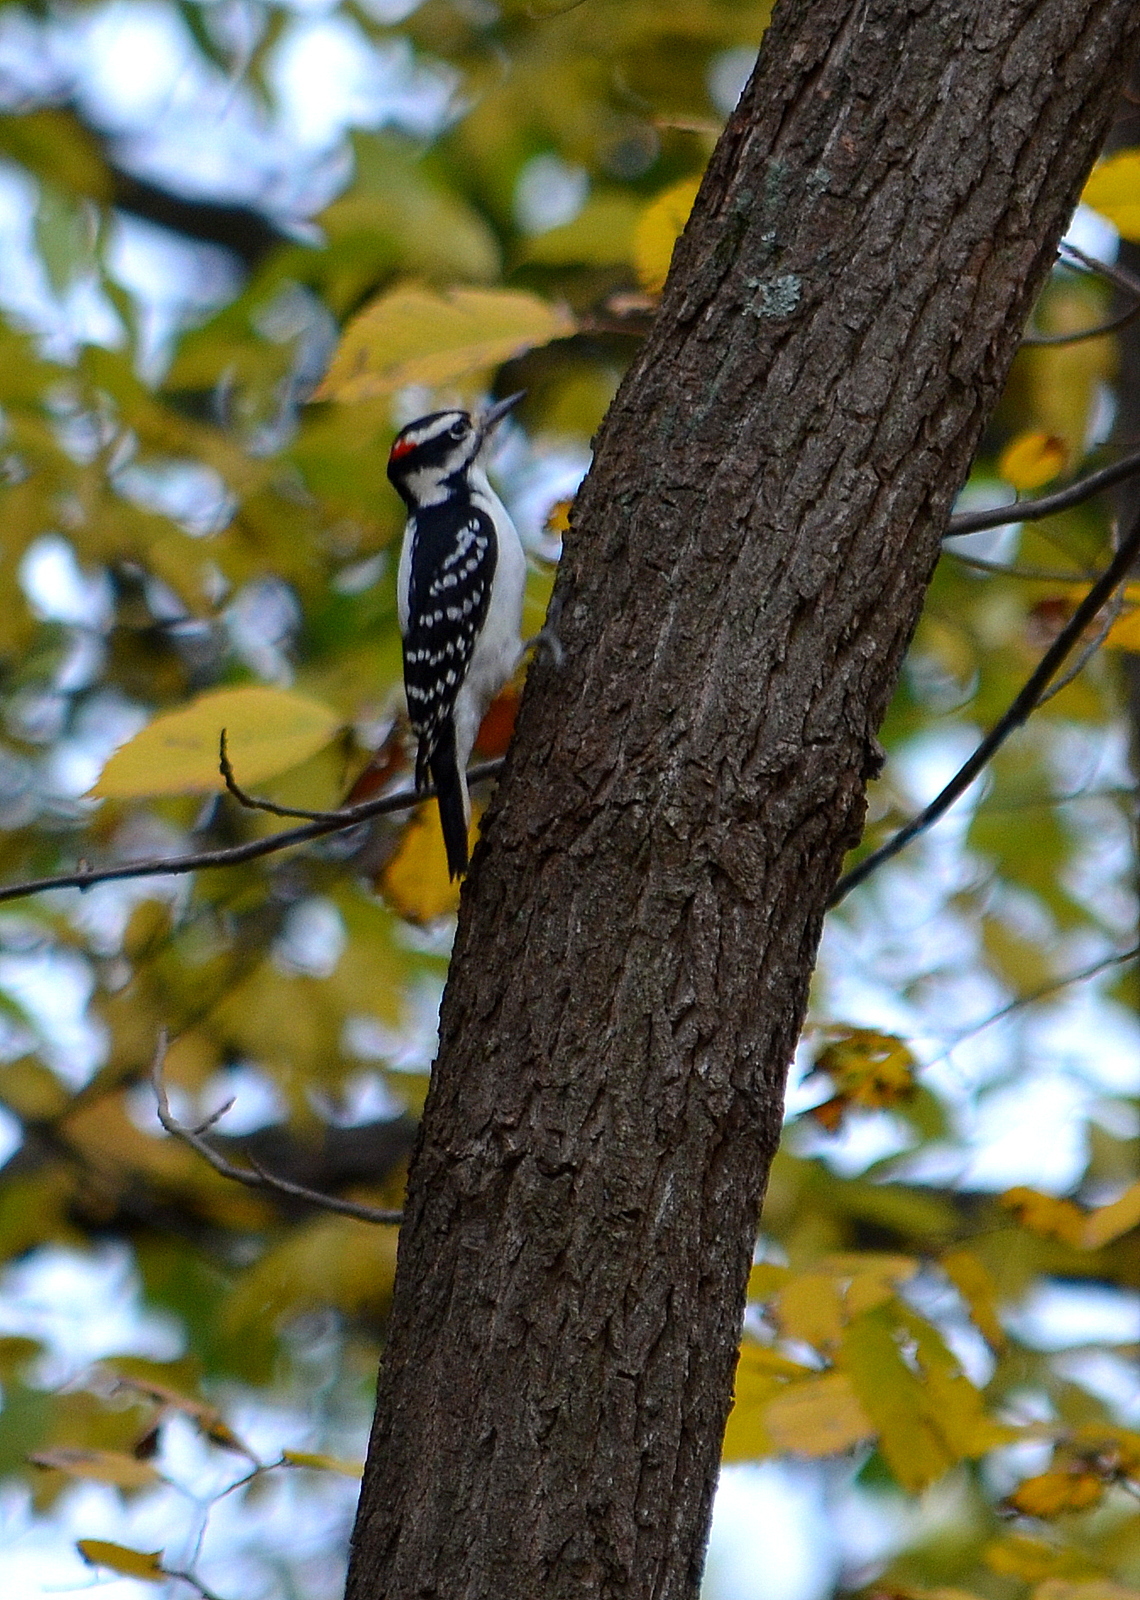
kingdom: Animalia
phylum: Chordata
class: Aves
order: Piciformes
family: Picidae
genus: Leuconotopicus
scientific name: Leuconotopicus villosus
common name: Hairy woodpecker
